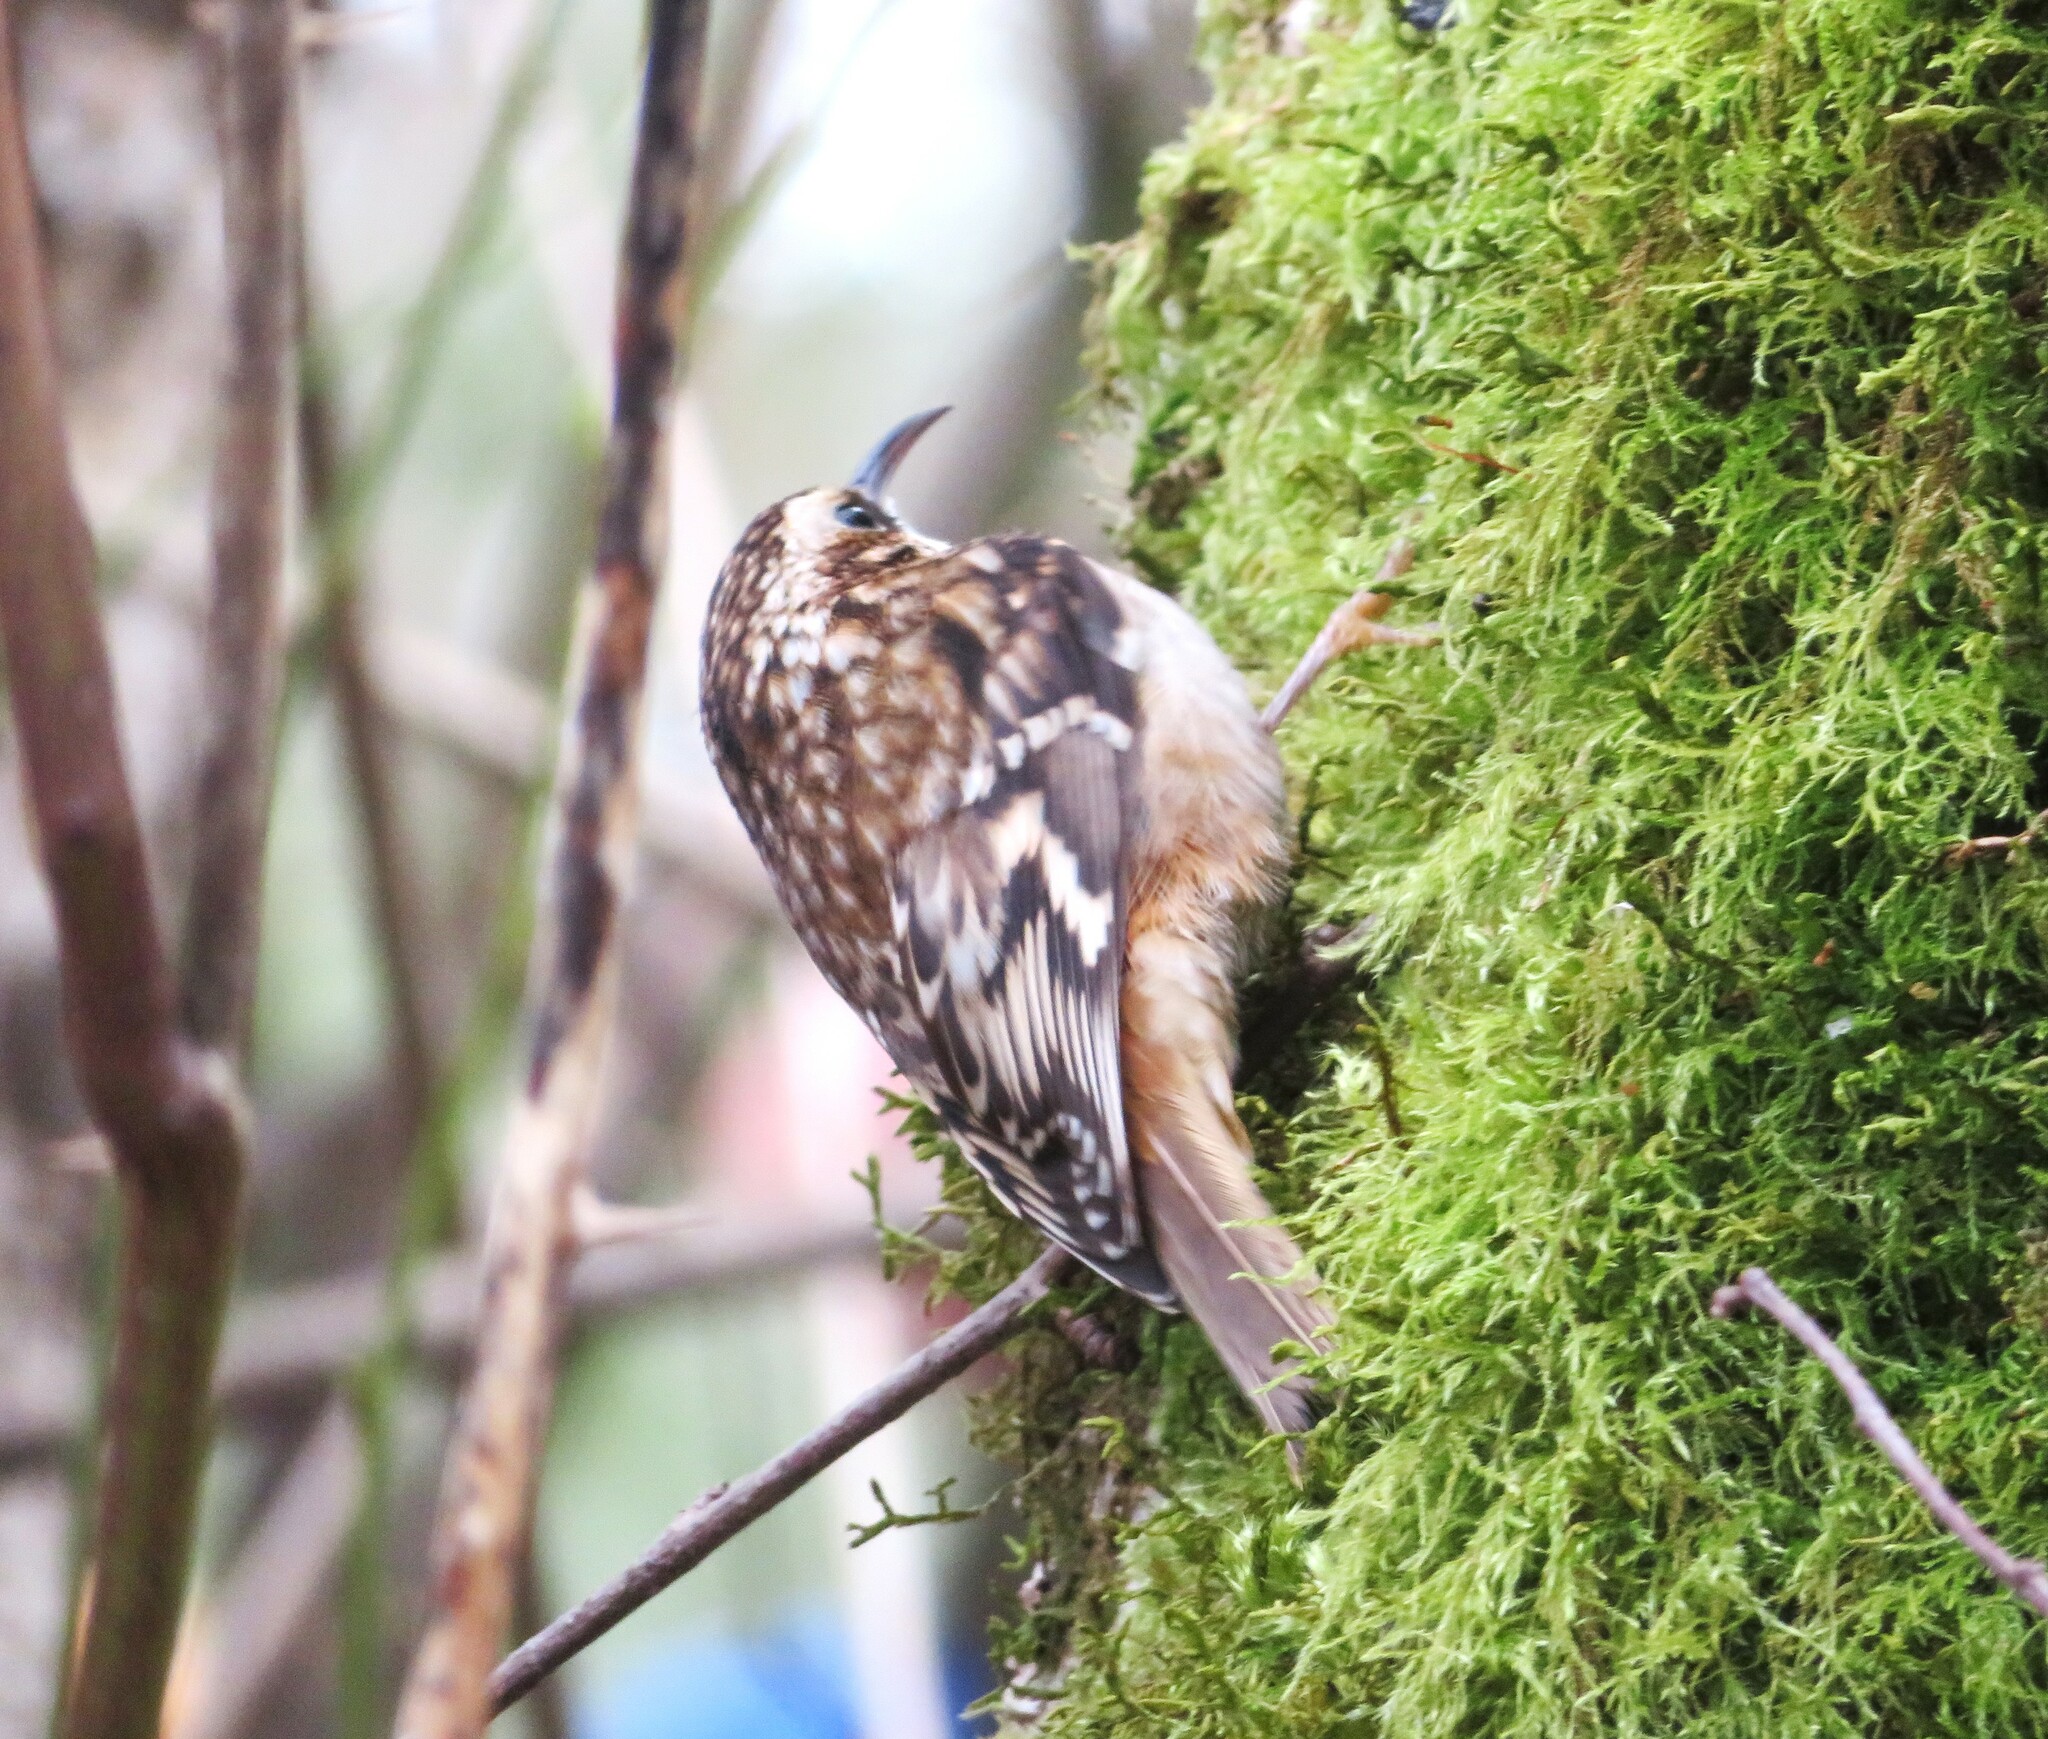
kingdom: Animalia
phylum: Chordata
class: Aves
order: Passeriformes
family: Certhiidae
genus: Certhia
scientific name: Certhia americana
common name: Brown creeper
